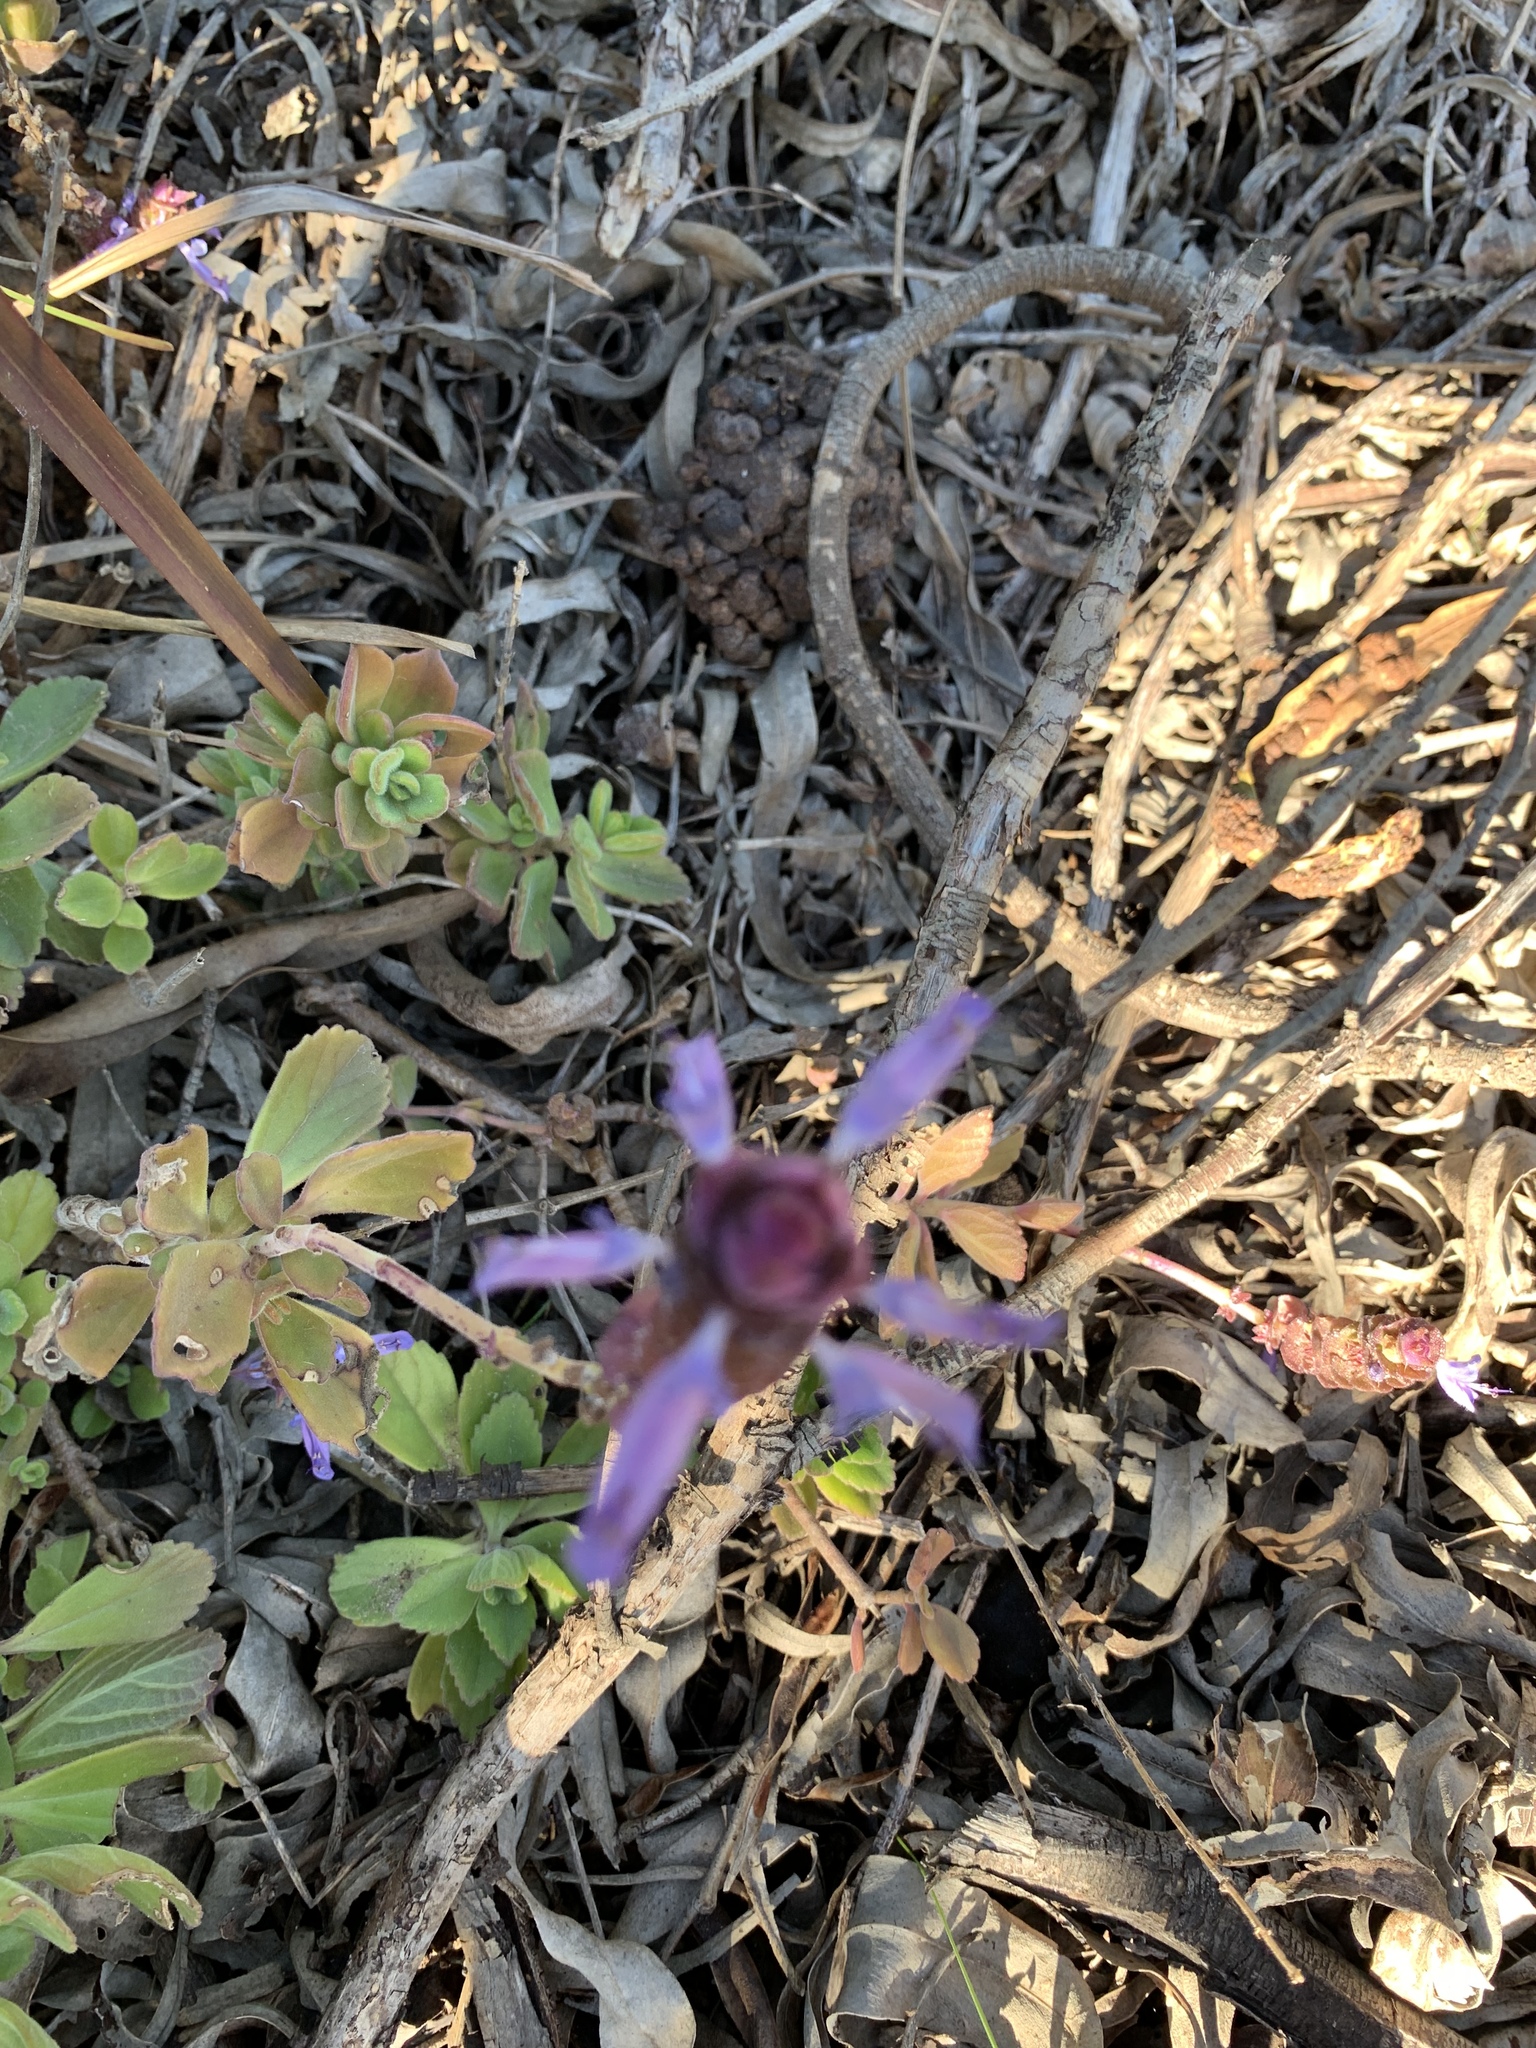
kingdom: Plantae
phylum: Tracheophyta
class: Magnoliopsida
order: Lamiales
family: Lamiaceae
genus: Coleus
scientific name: Coleus neochilus
